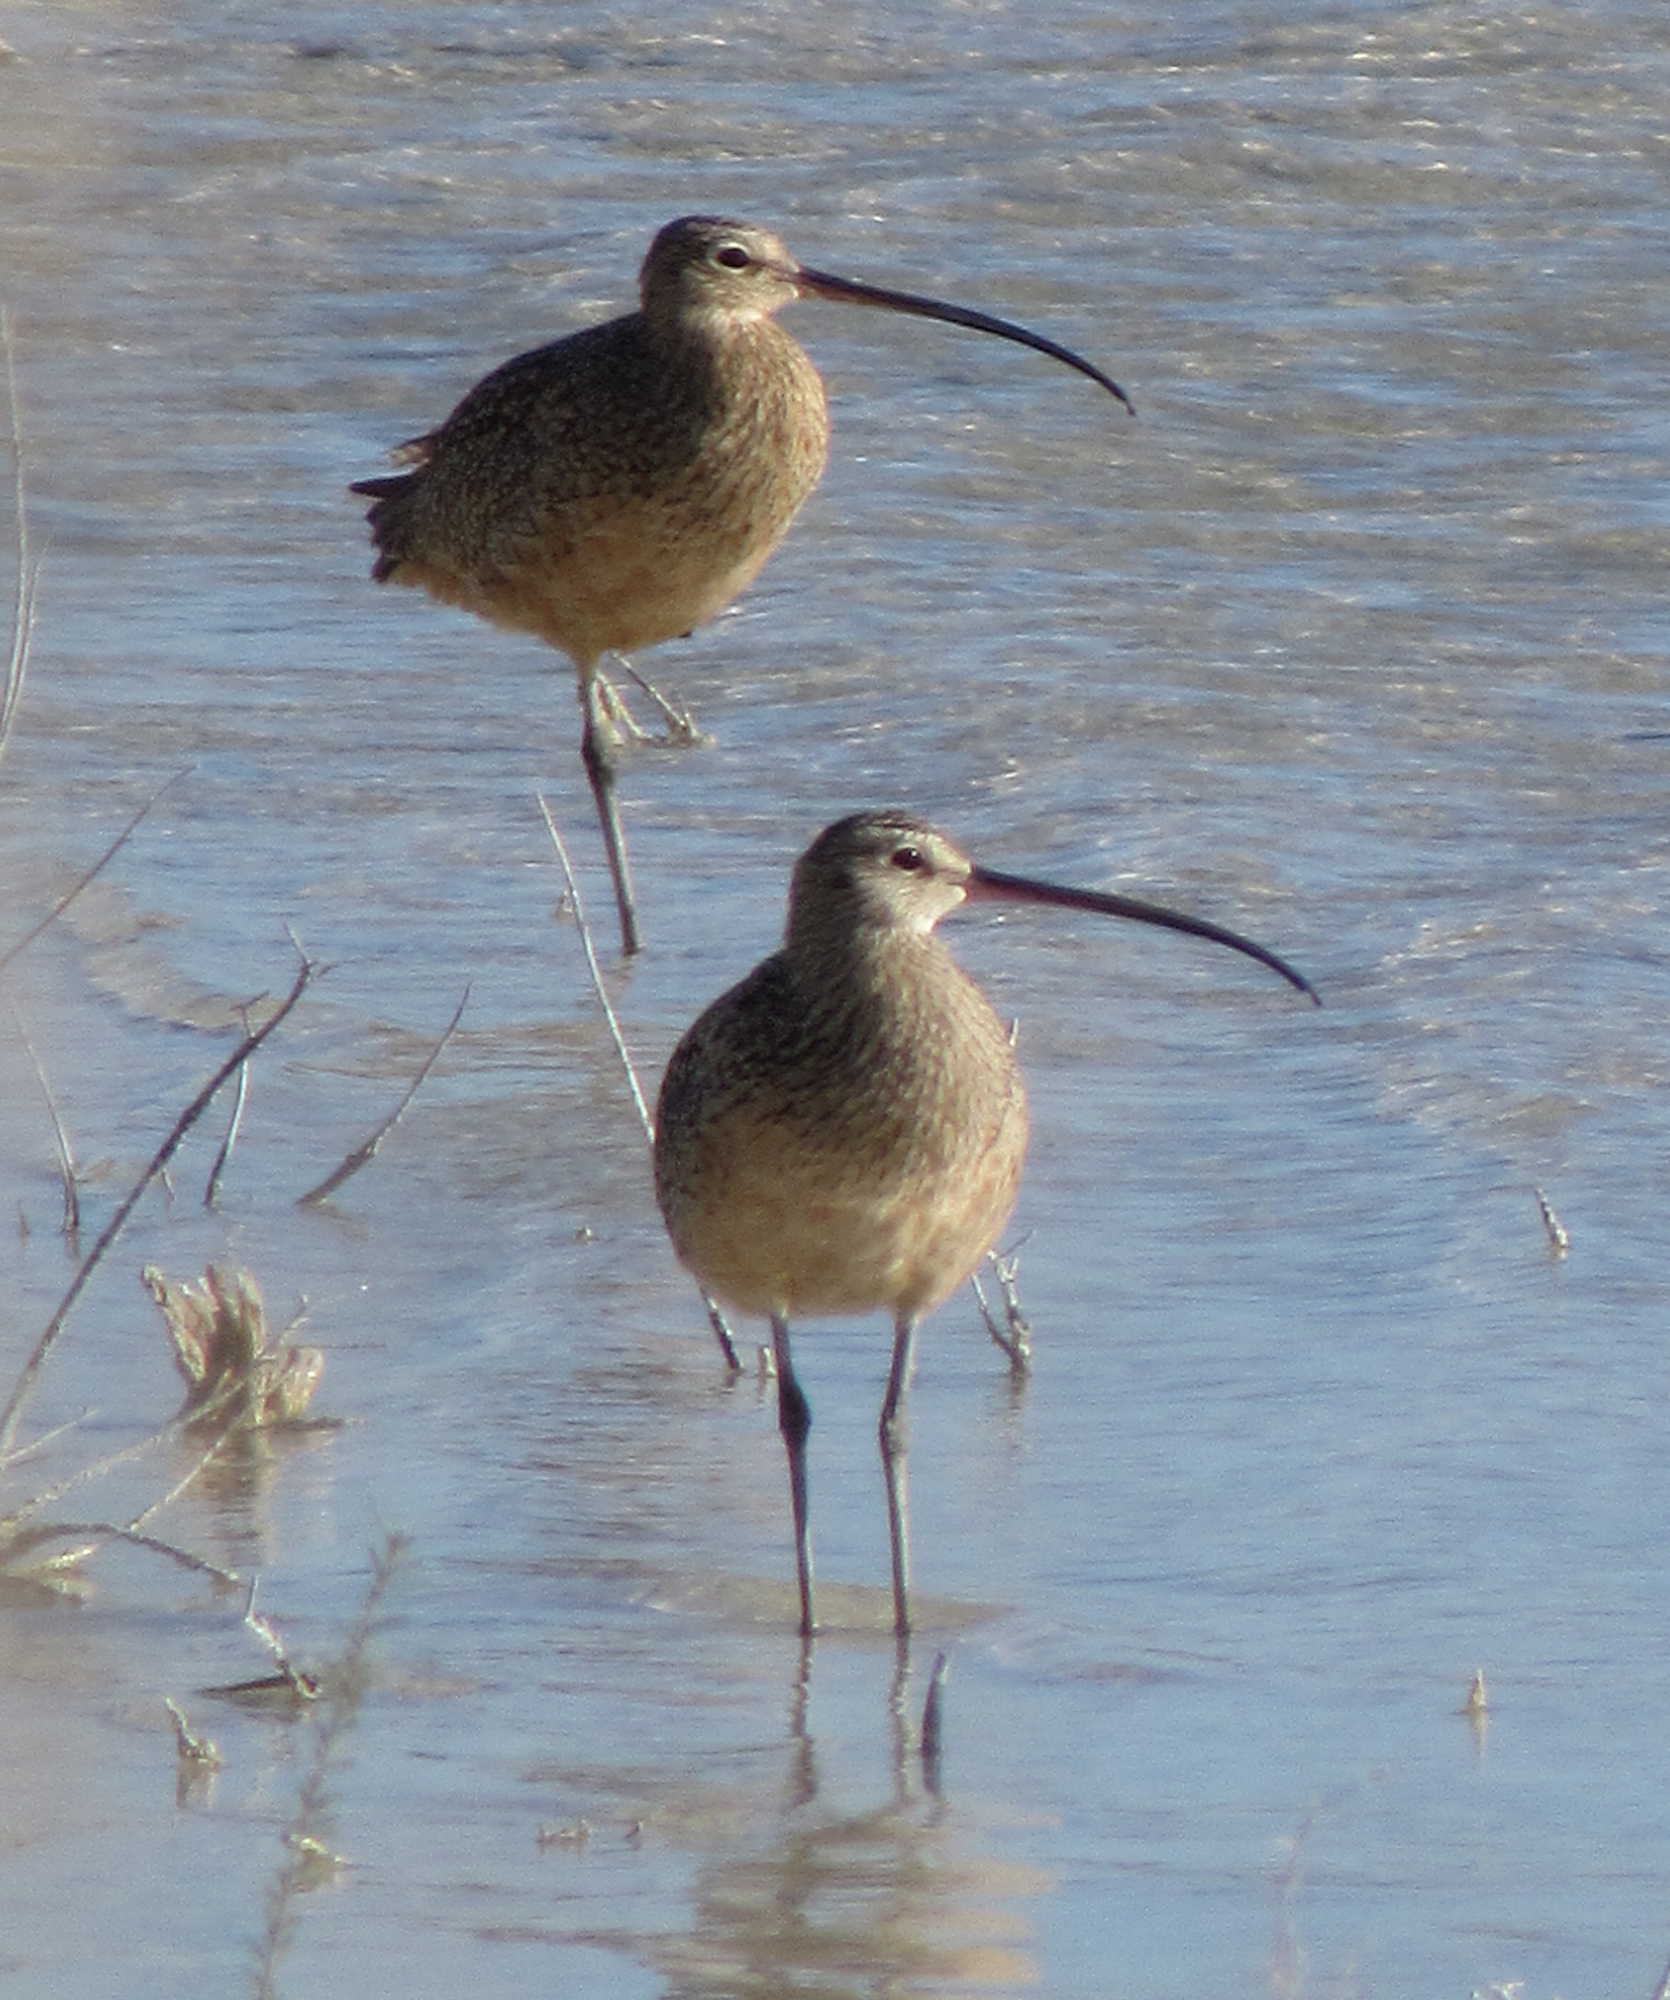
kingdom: Animalia
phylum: Chordata
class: Aves
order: Charadriiformes
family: Scolopacidae
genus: Numenius
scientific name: Numenius americanus
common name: Long-billed curlew
